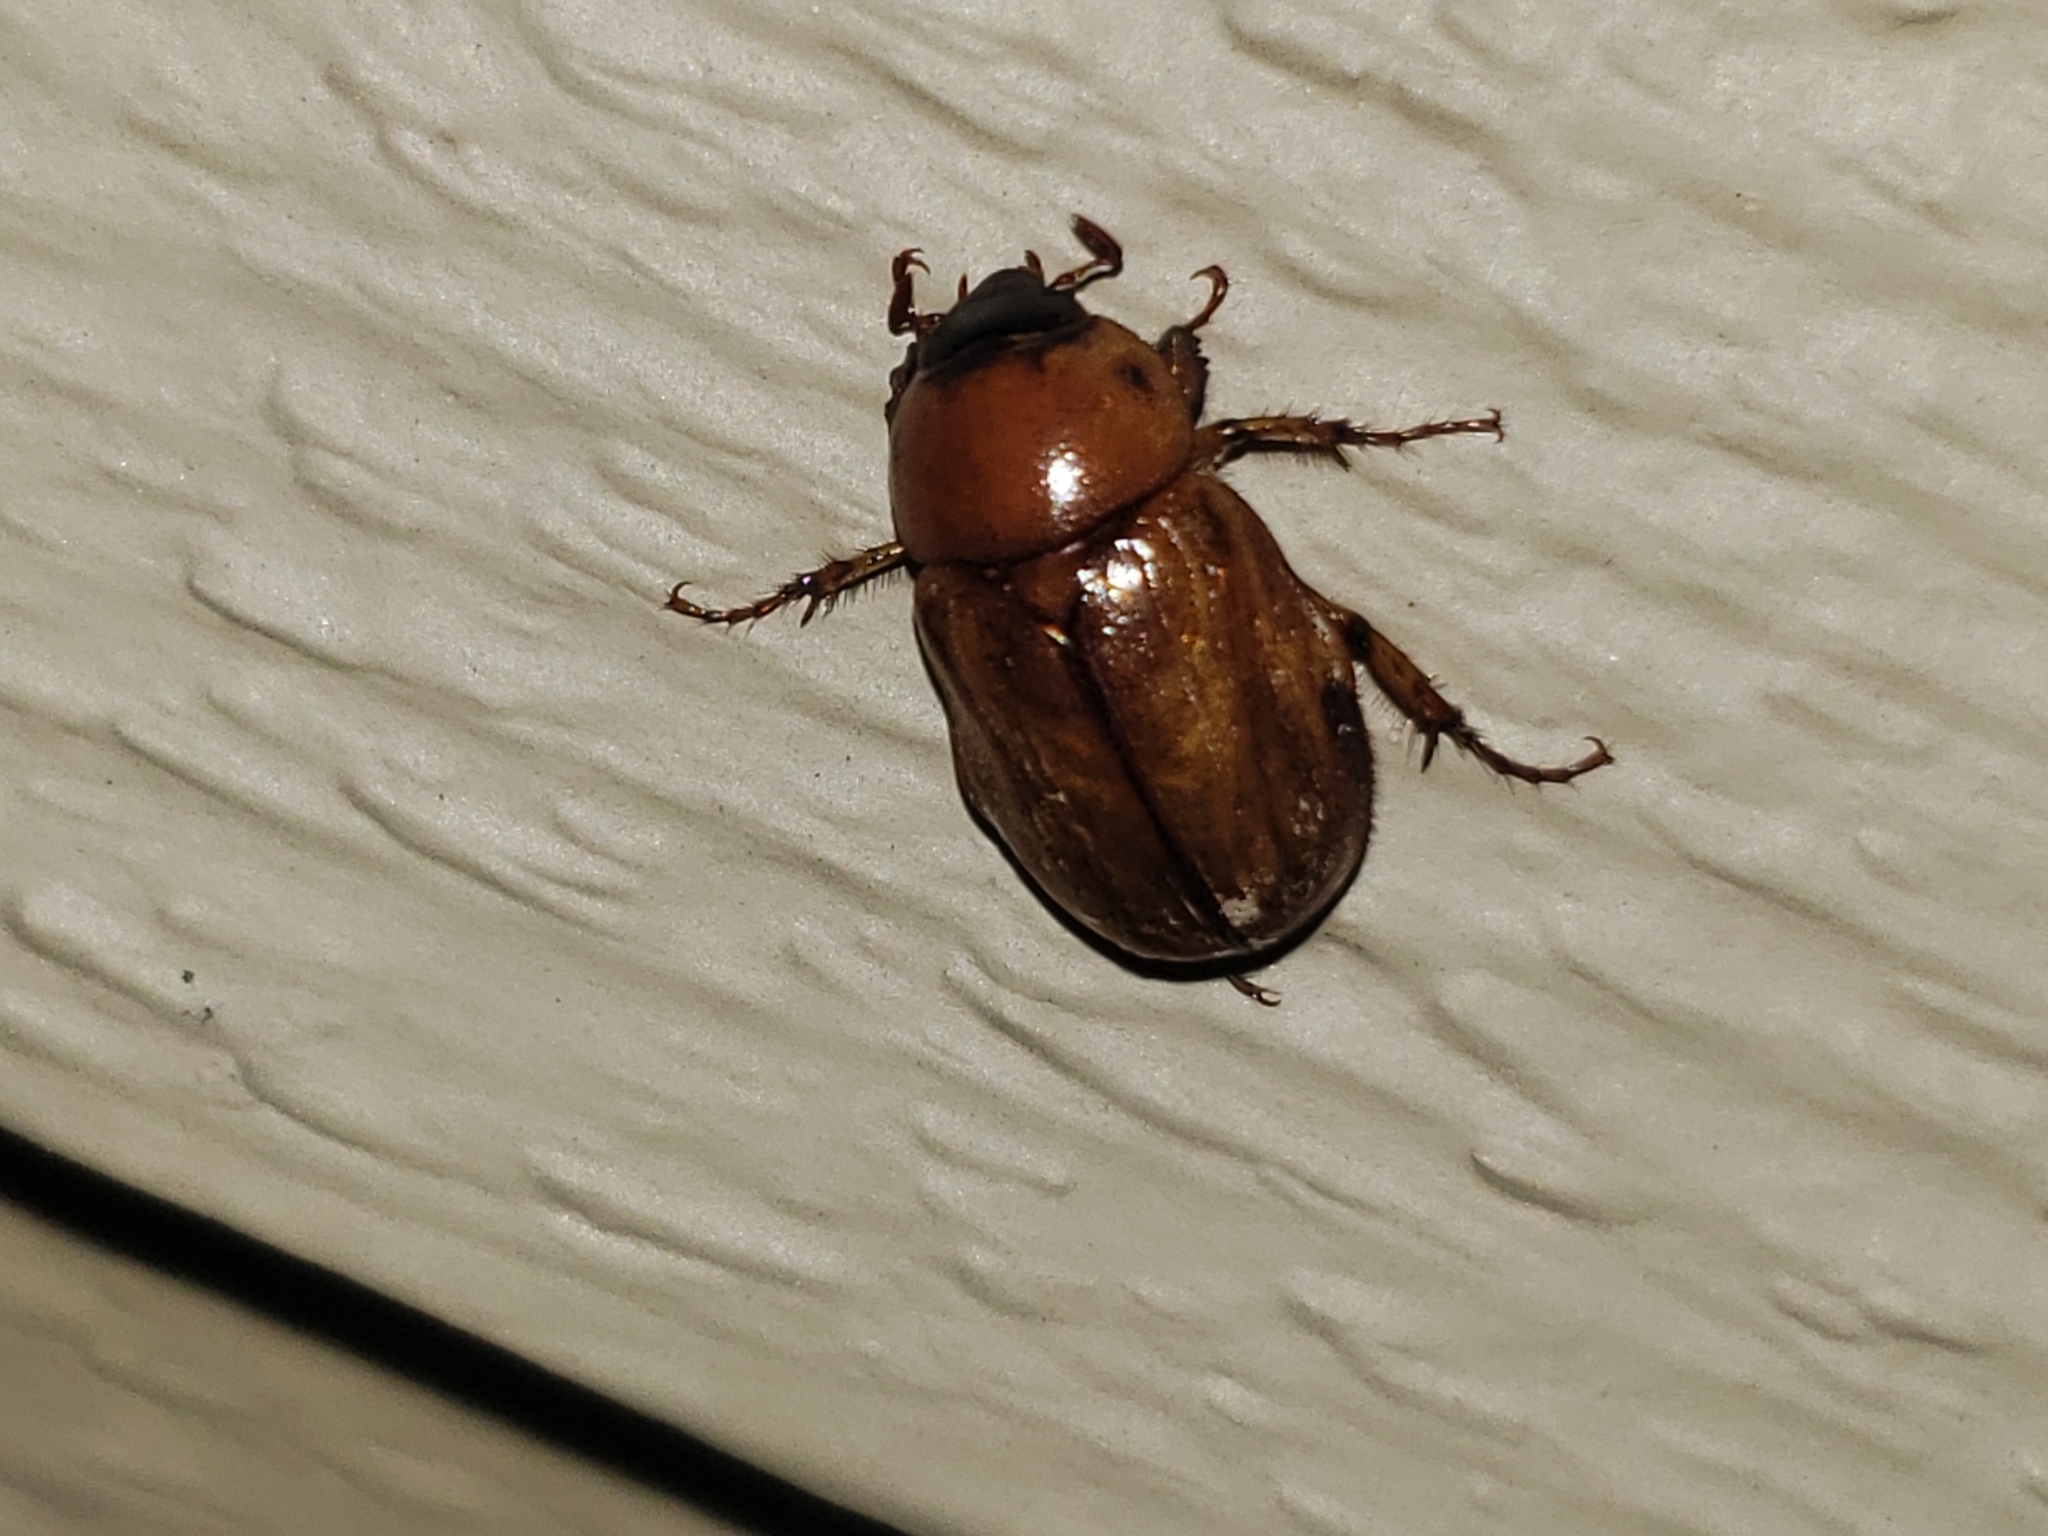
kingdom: Animalia
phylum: Arthropoda
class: Insecta
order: Coleoptera
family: Scarabaeidae
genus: Cyclocephala
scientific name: Cyclocephala lurida
